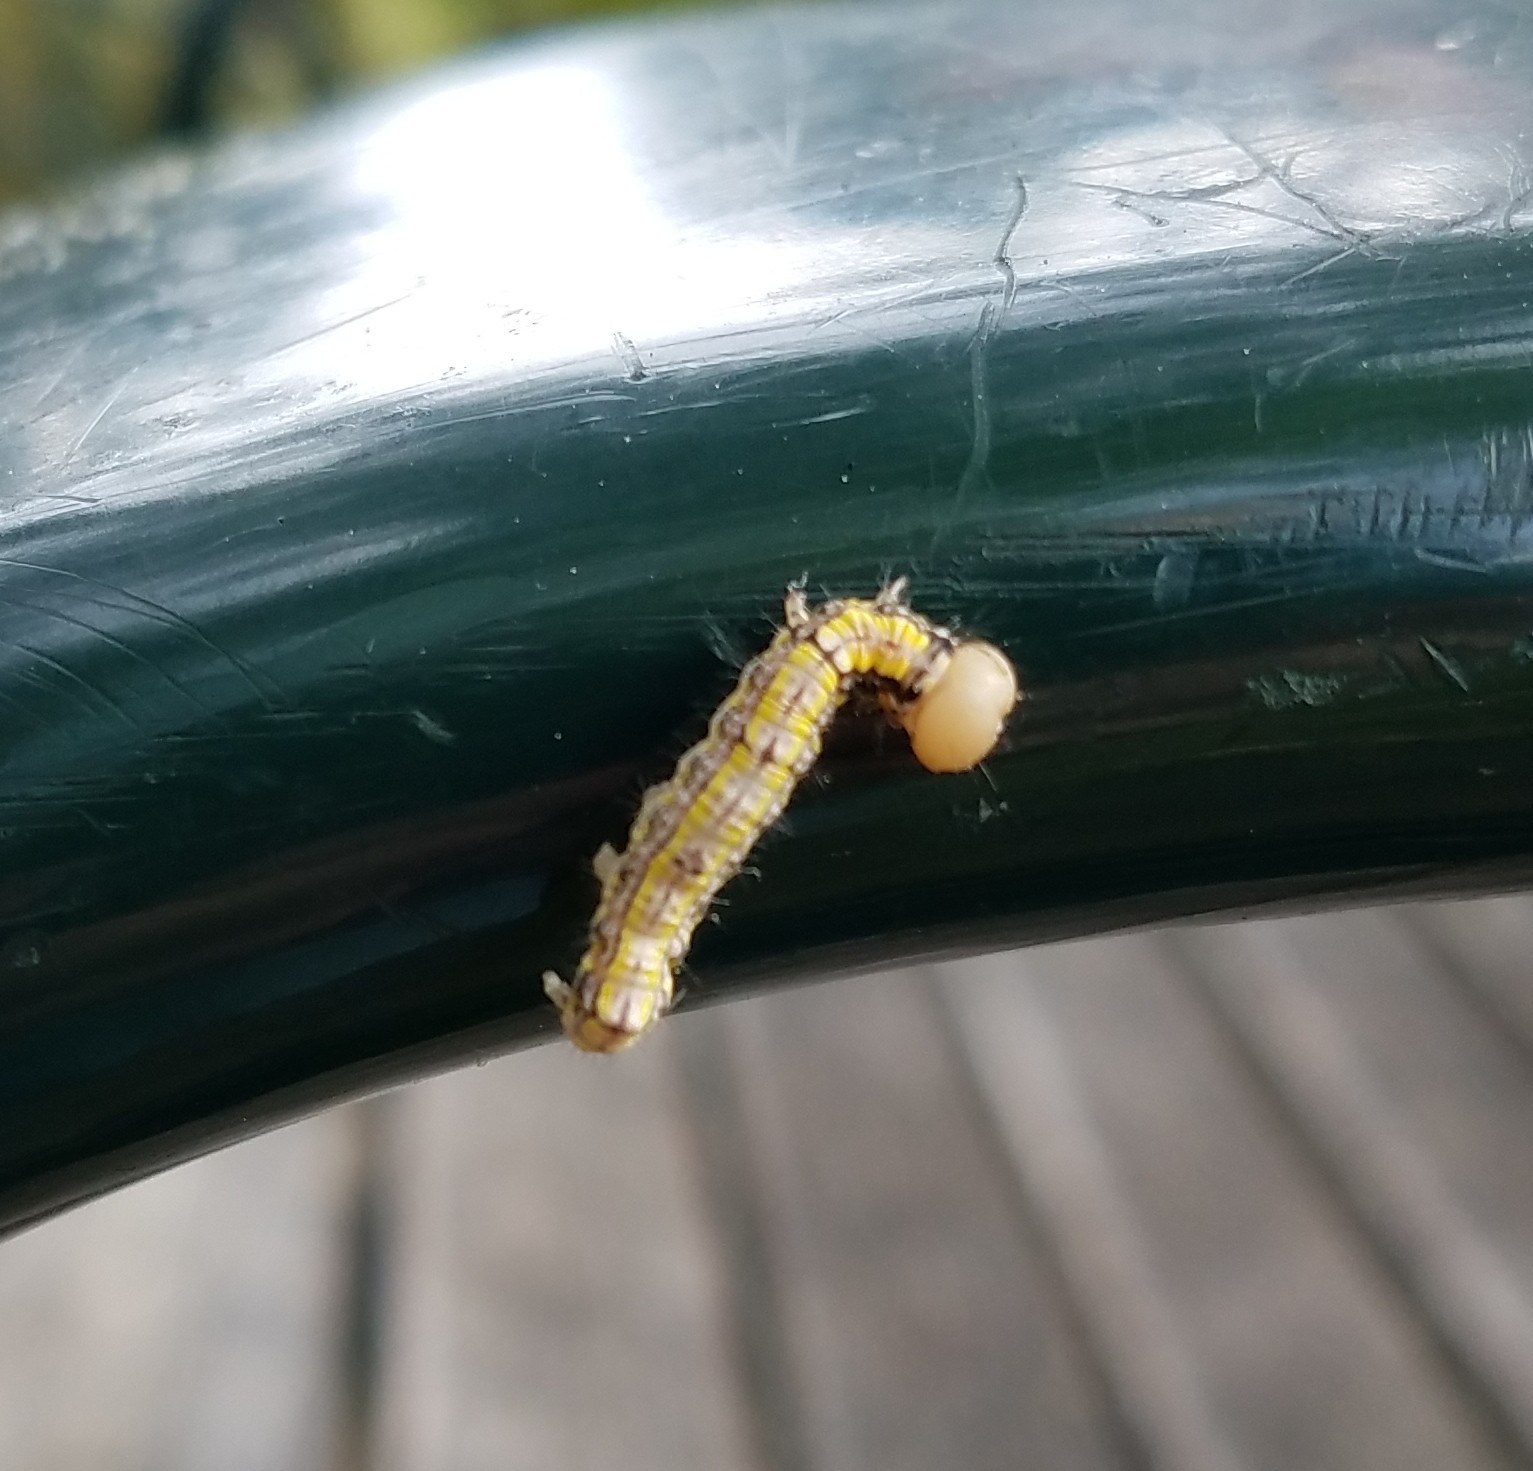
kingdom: Animalia
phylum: Arthropoda
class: Insecta
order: Lepidoptera
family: Notodontidae
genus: Phryganidia
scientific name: Phryganidia californica
